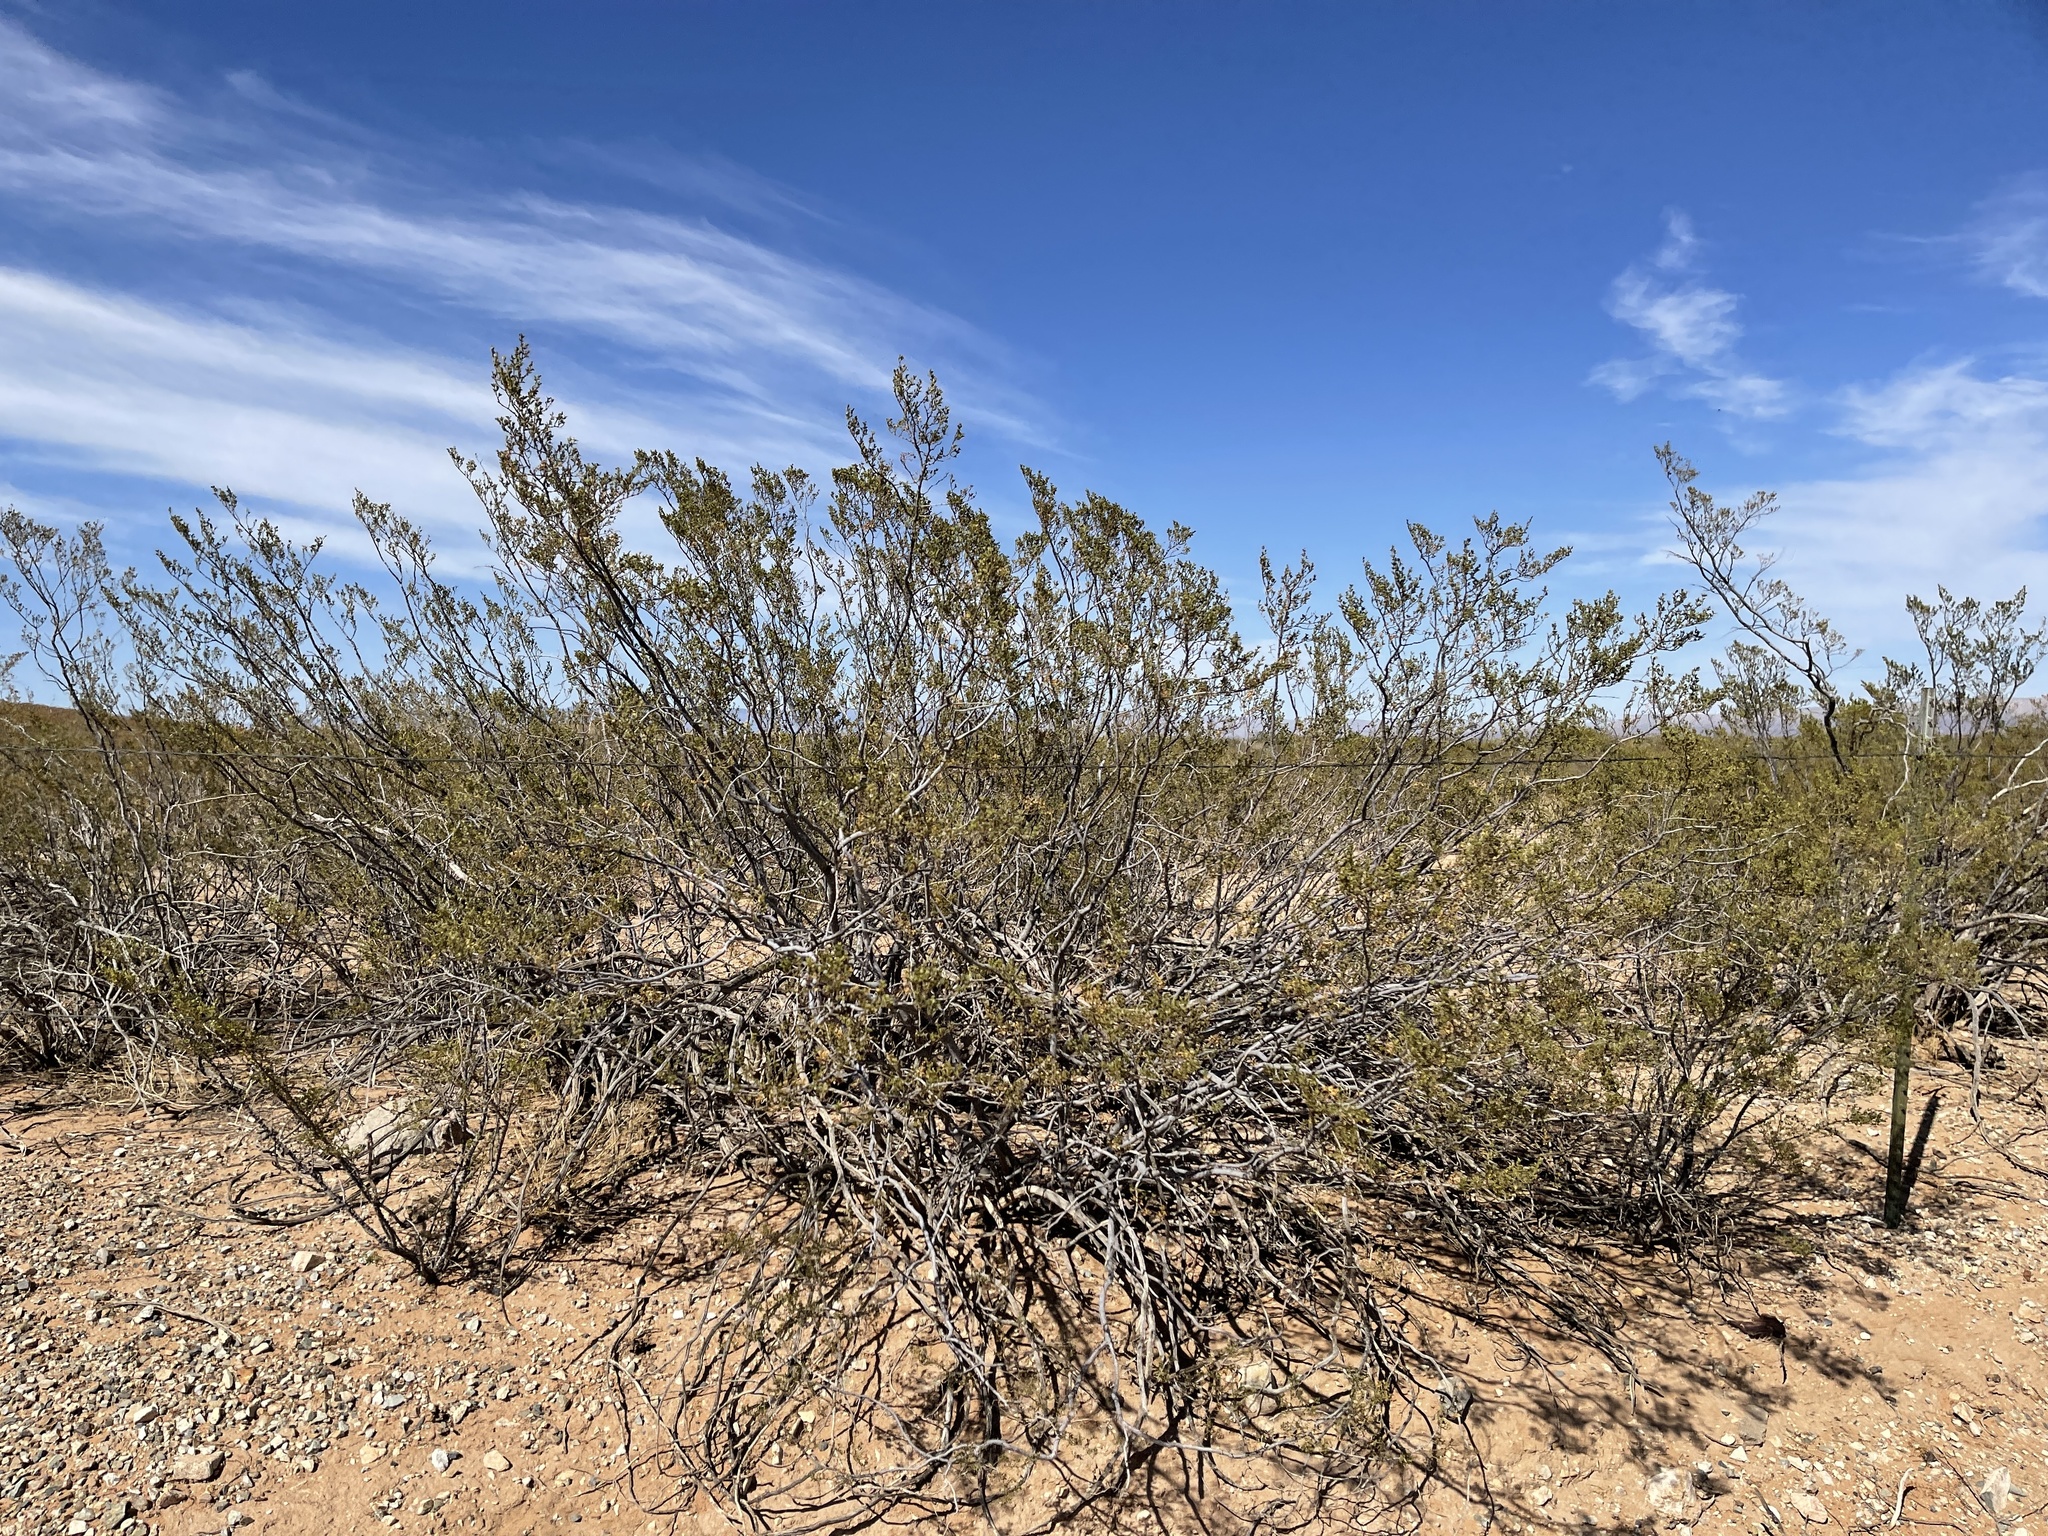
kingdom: Plantae
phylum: Tracheophyta
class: Magnoliopsida
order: Zygophyllales
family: Zygophyllaceae
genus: Larrea
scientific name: Larrea tridentata
